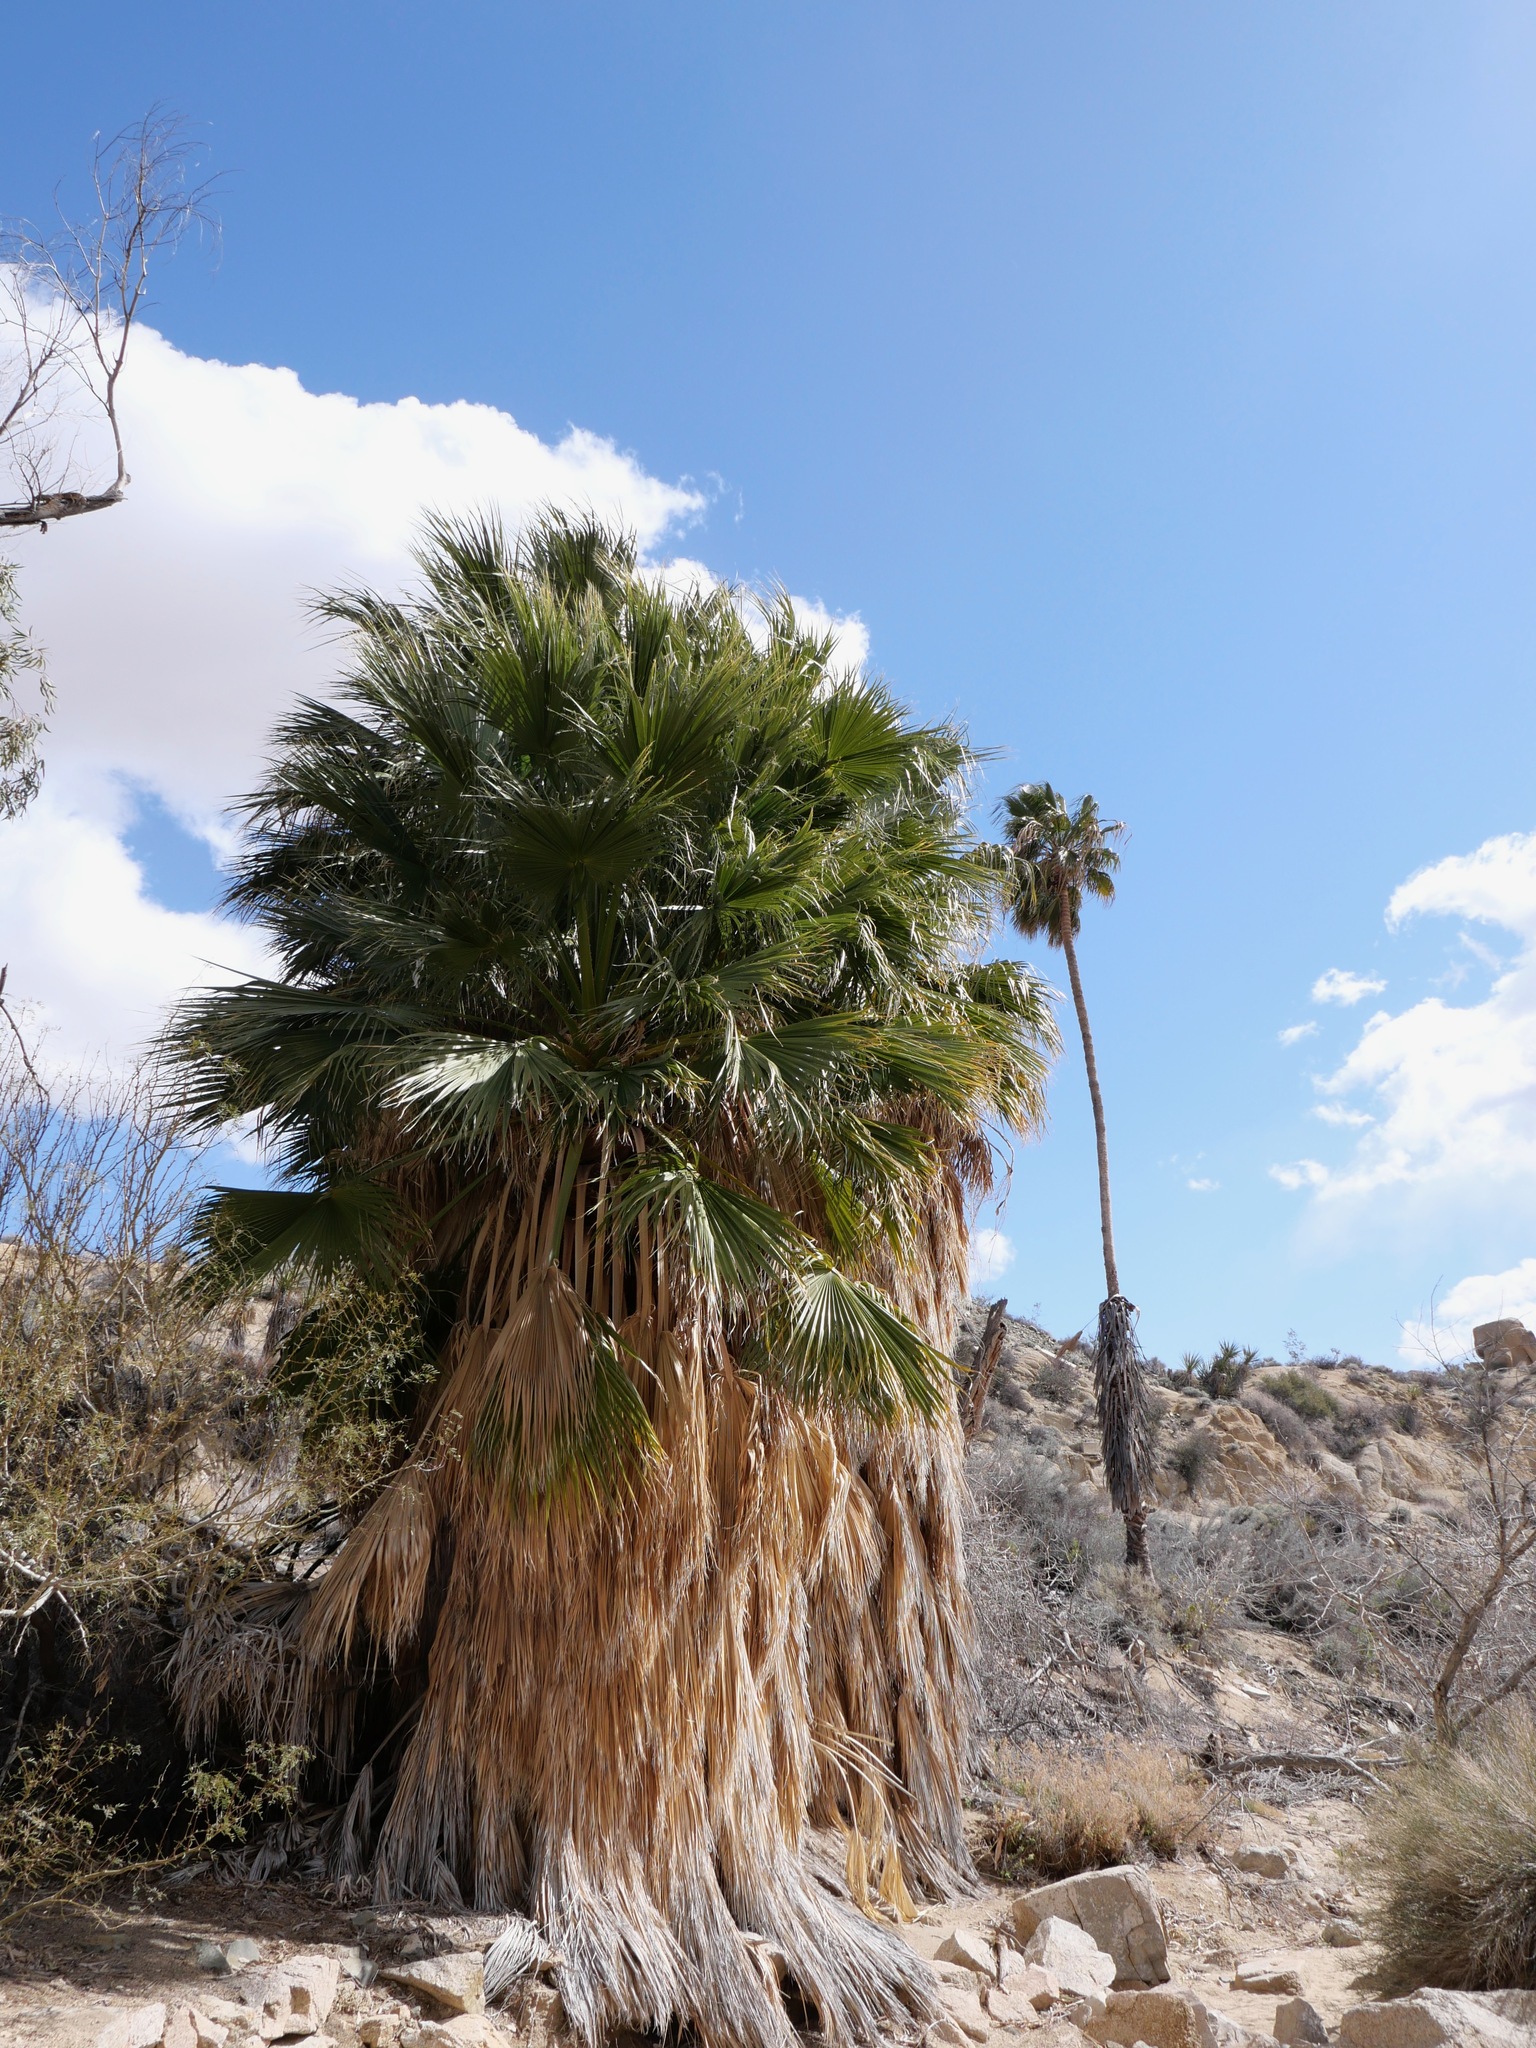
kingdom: Plantae
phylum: Tracheophyta
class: Liliopsida
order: Arecales
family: Arecaceae
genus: Washingtonia
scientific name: Washingtonia filifera
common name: California fan palm
